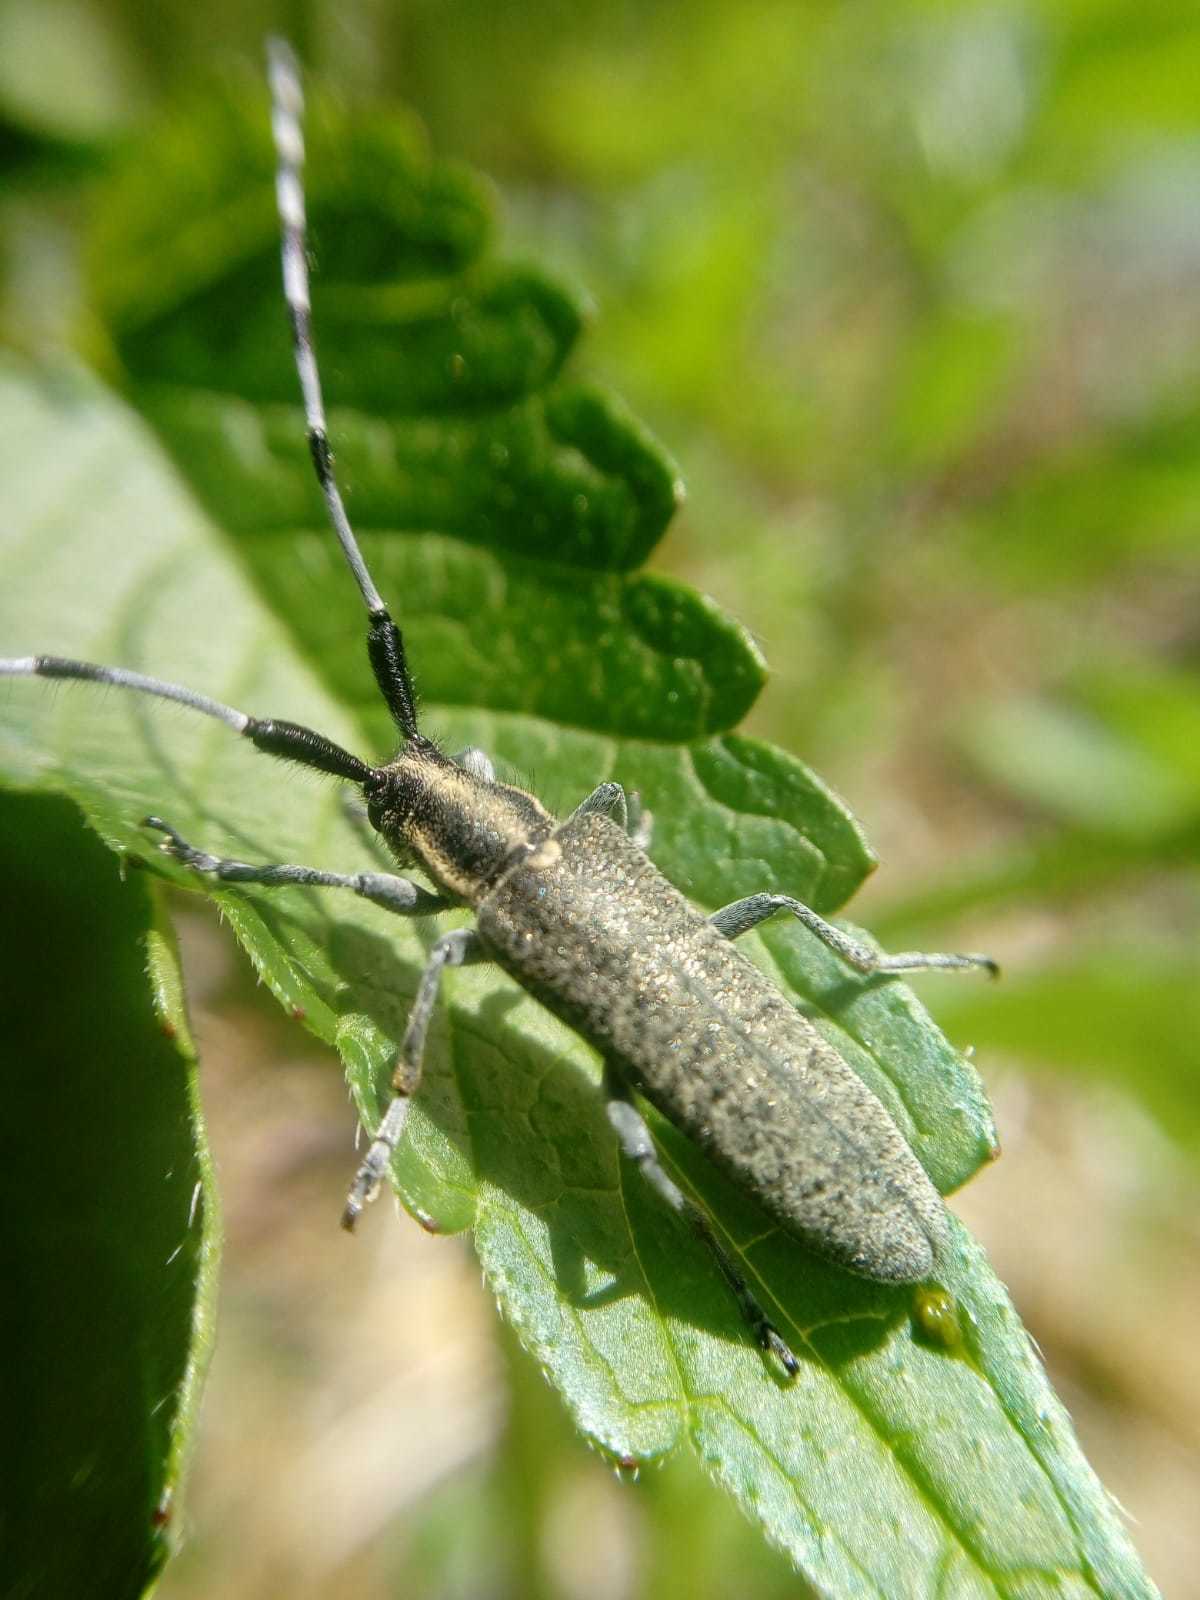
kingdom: Animalia
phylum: Arthropoda
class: Insecta
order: Coleoptera
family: Cerambycidae
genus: Agapanthia
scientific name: Agapanthia villosoviridescens
